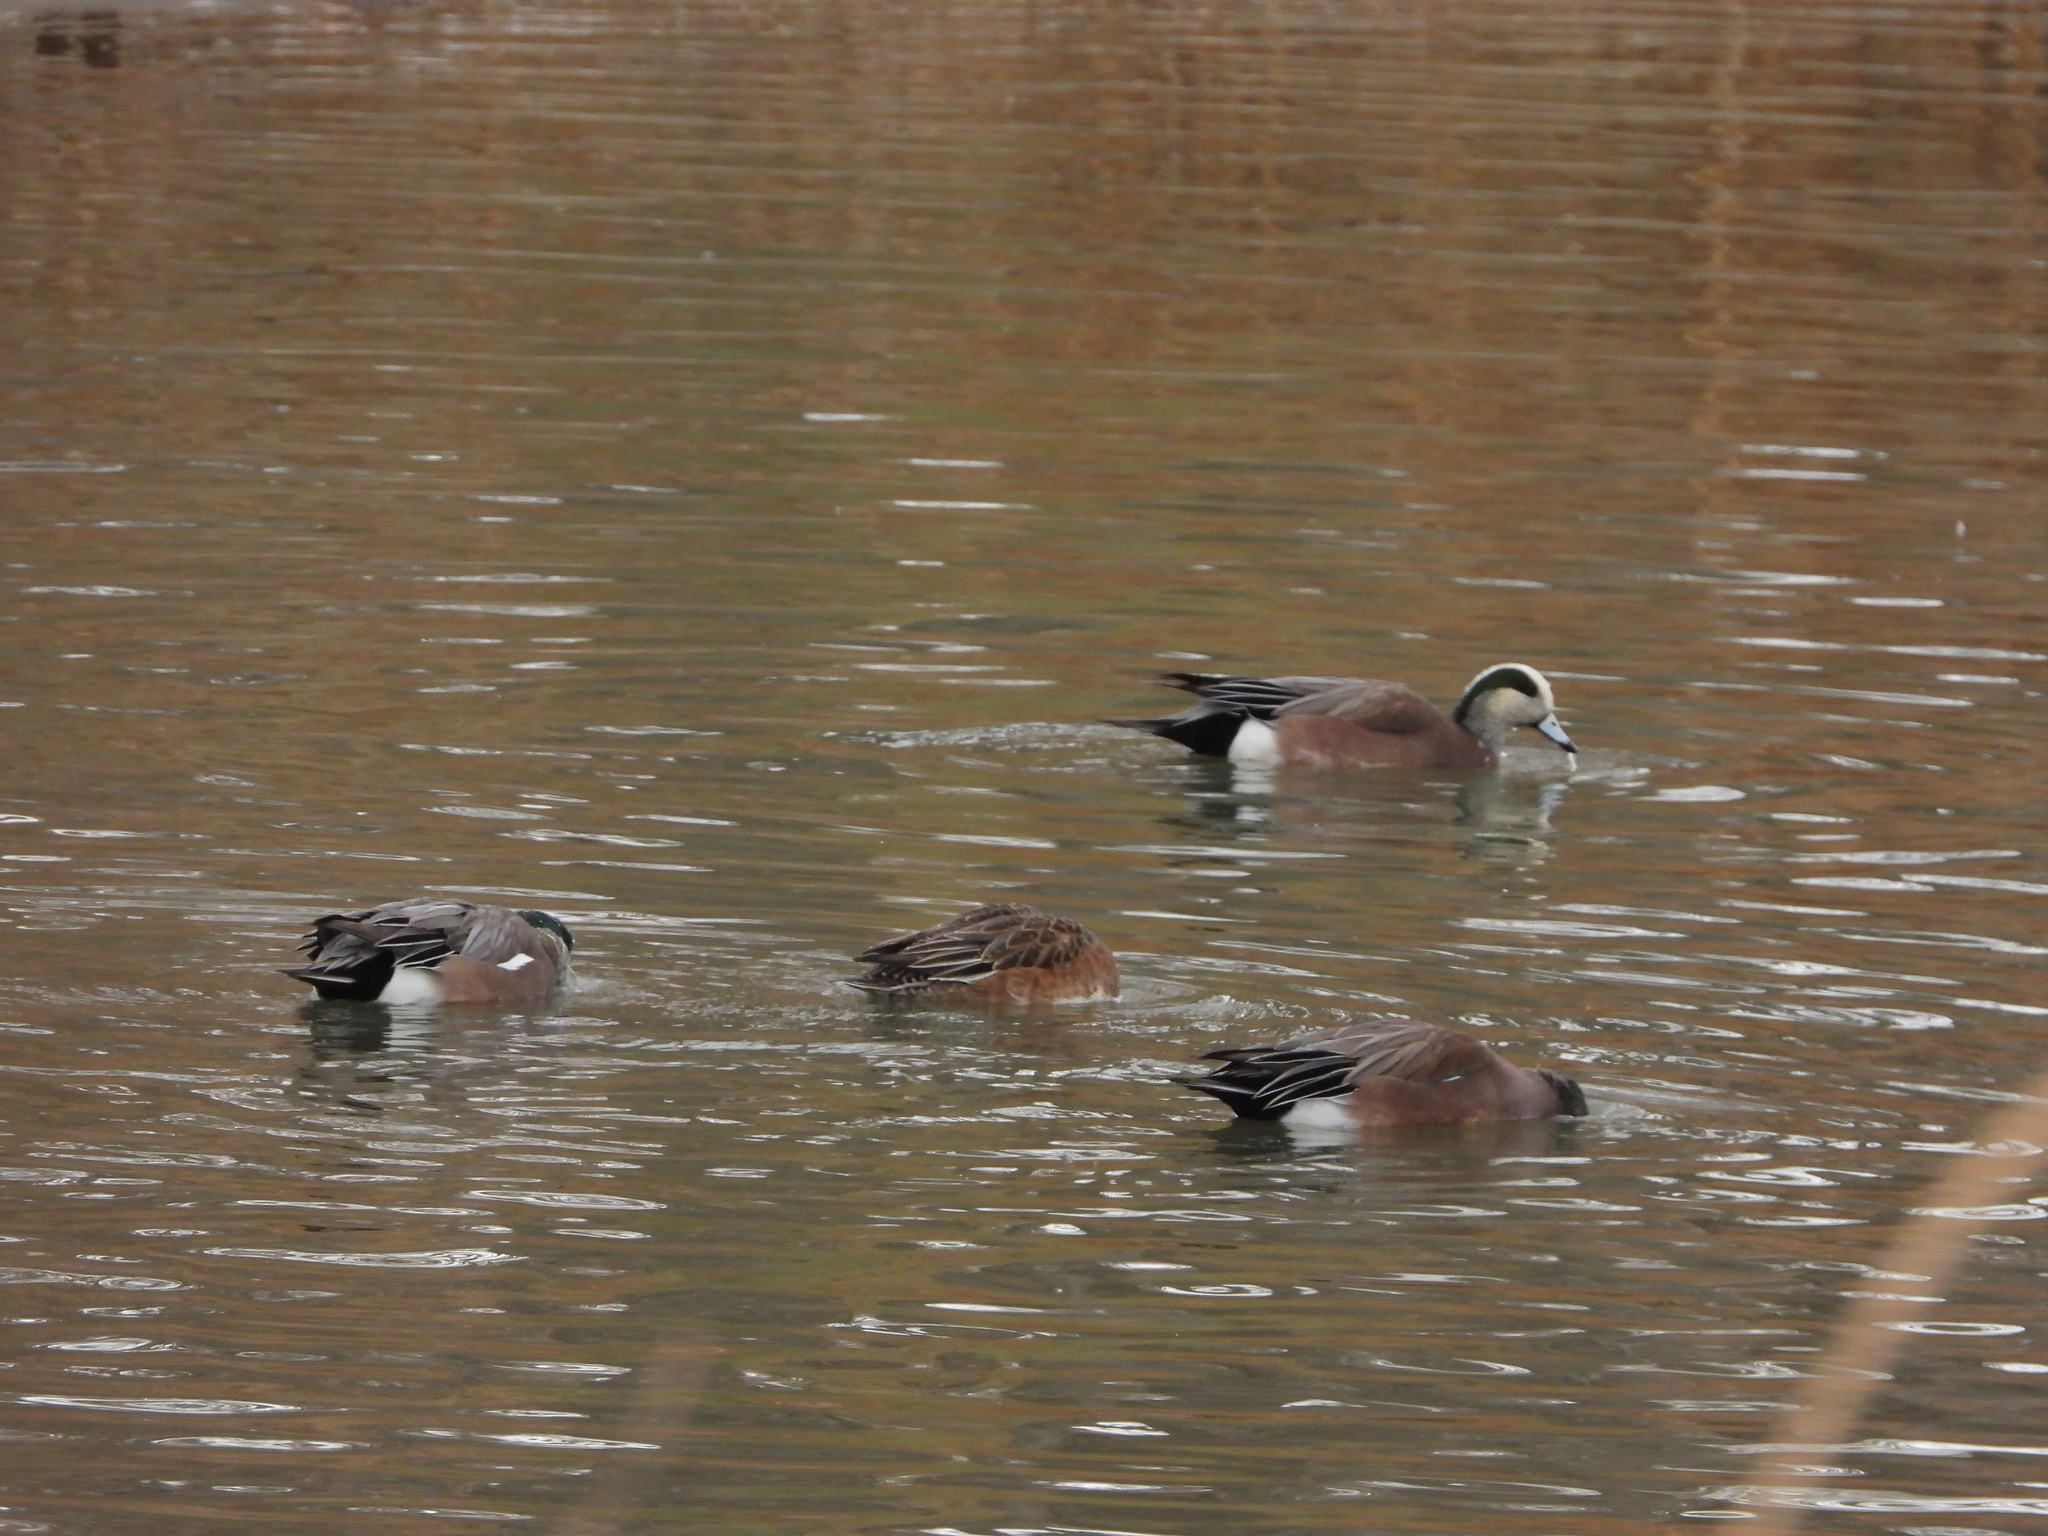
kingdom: Animalia
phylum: Chordata
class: Aves
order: Anseriformes
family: Anatidae
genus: Mareca
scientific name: Mareca americana
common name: American wigeon
